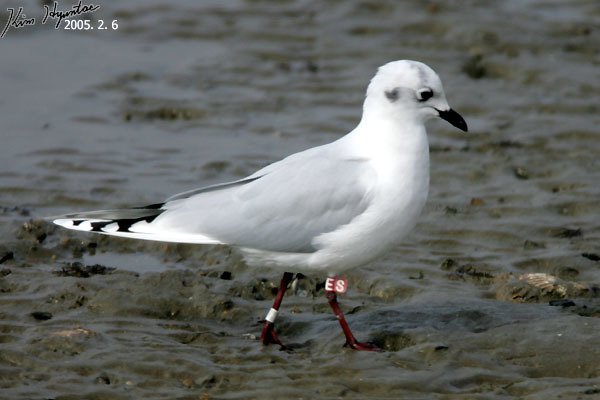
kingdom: Animalia
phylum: Chordata
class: Aves
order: Charadriiformes
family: Laridae
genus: Chroicocephalus
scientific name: Chroicocephalus saundersi
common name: Saunders's gull
